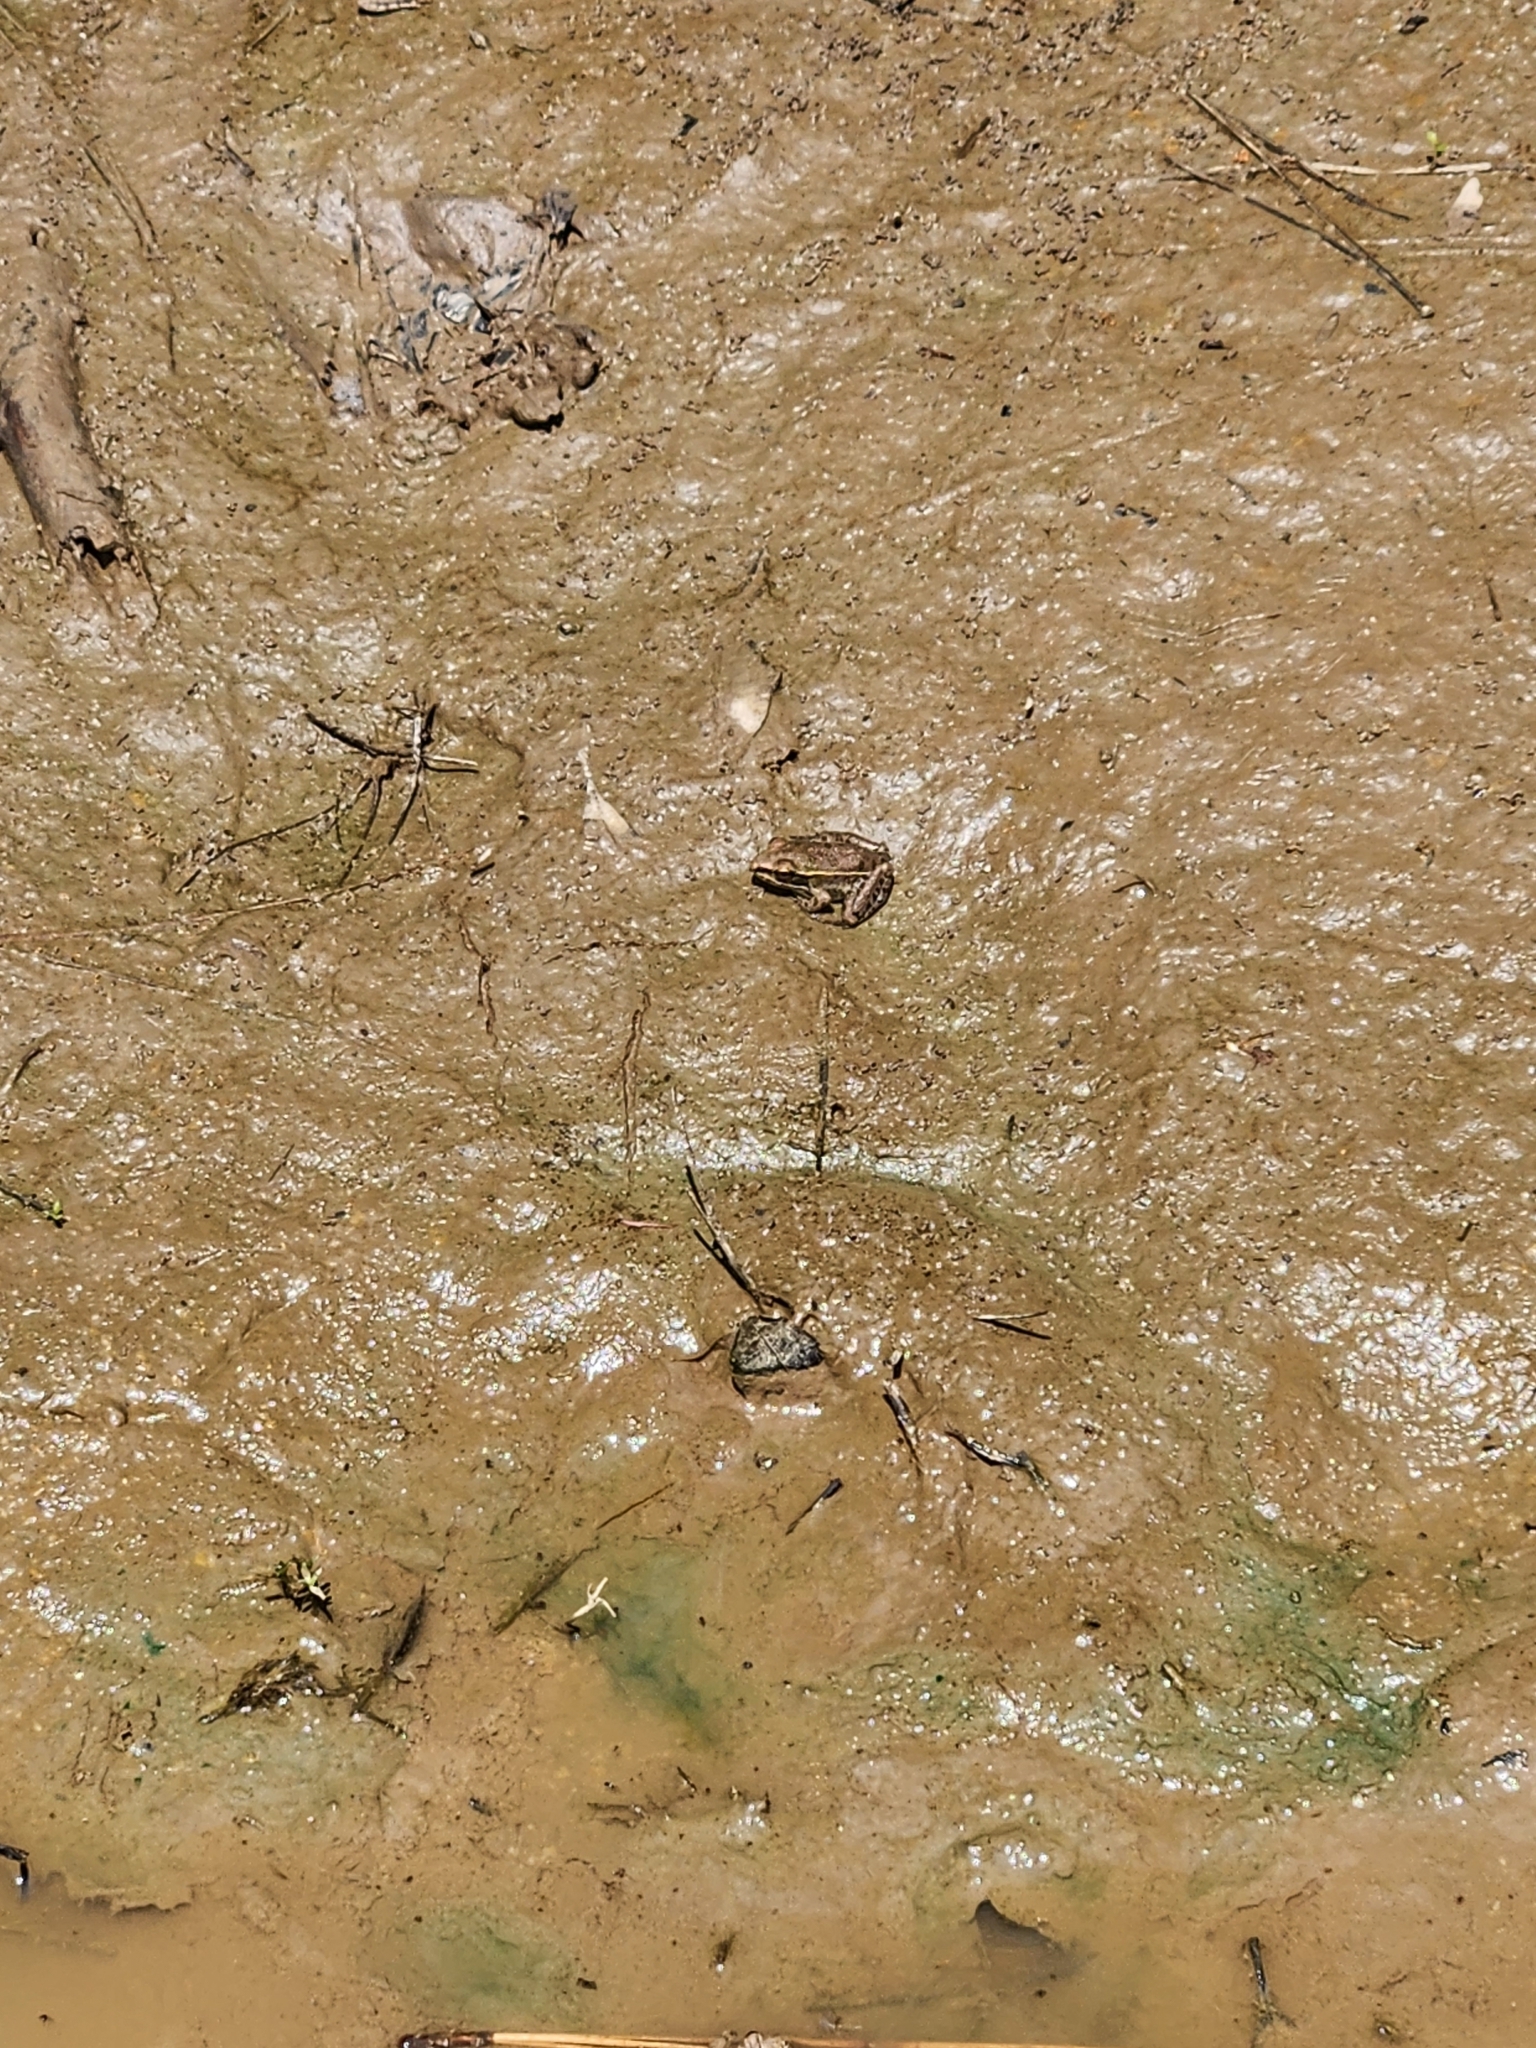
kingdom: Animalia
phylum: Chordata
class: Amphibia
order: Anura
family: Ranidae
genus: Lithobates
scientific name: Lithobates sphenocephalus
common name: Southern leopard frog
